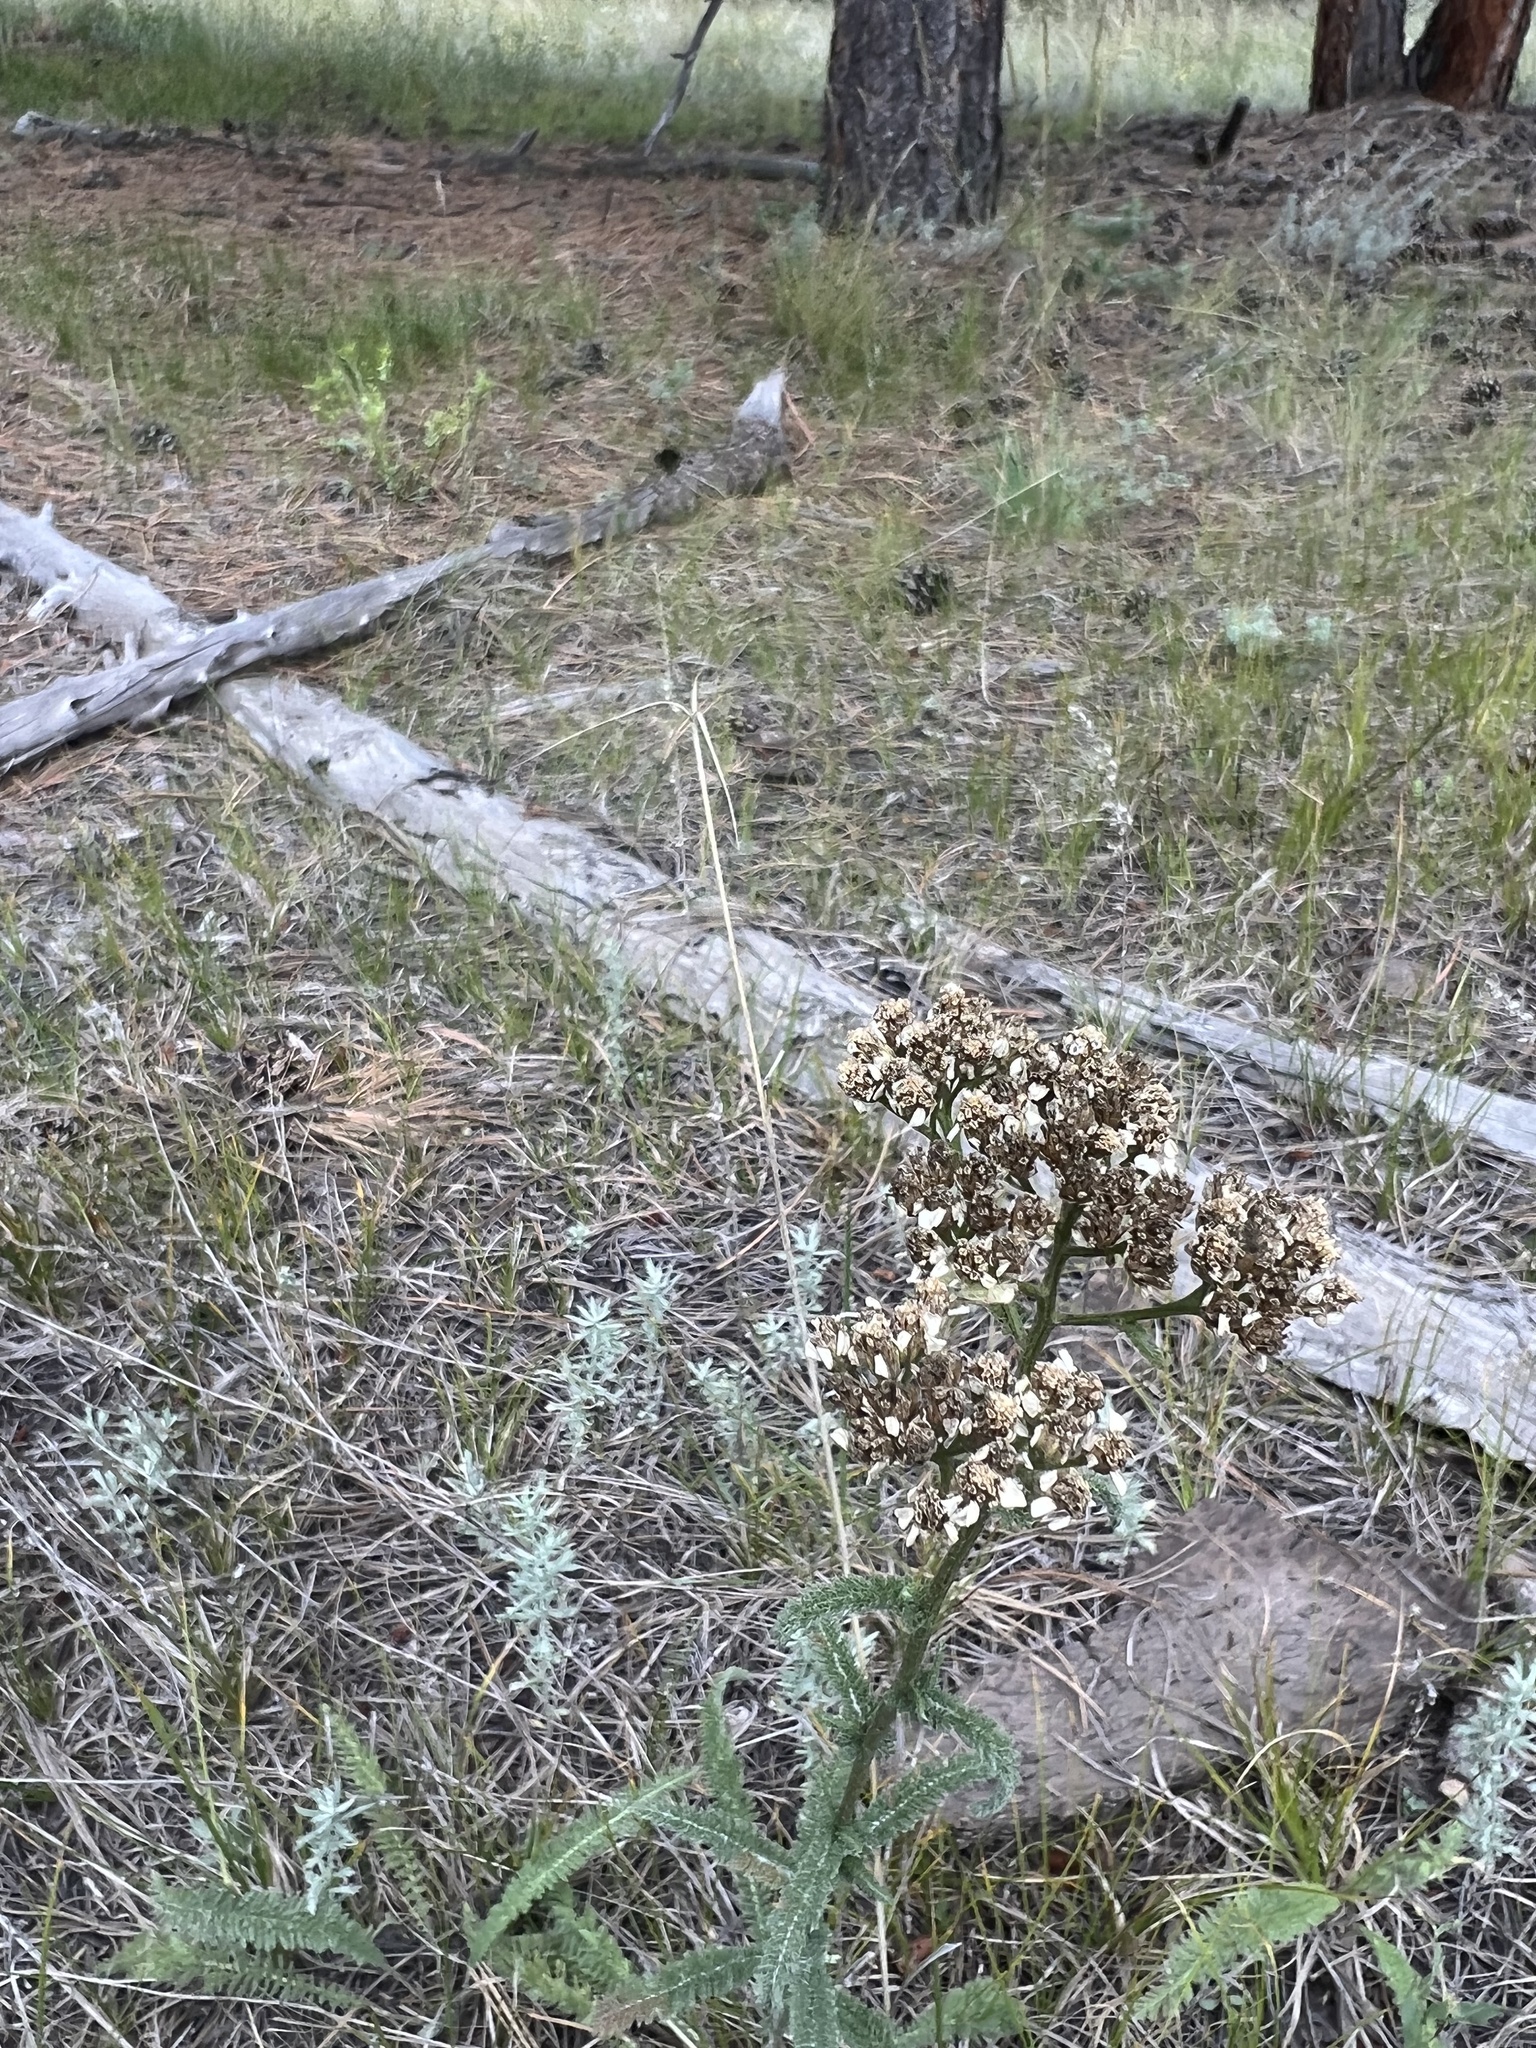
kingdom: Plantae
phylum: Tracheophyta
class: Magnoliopsida
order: Asterales
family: Asteraceae
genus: Achillea
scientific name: Achillea millefolium
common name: Yarrow
